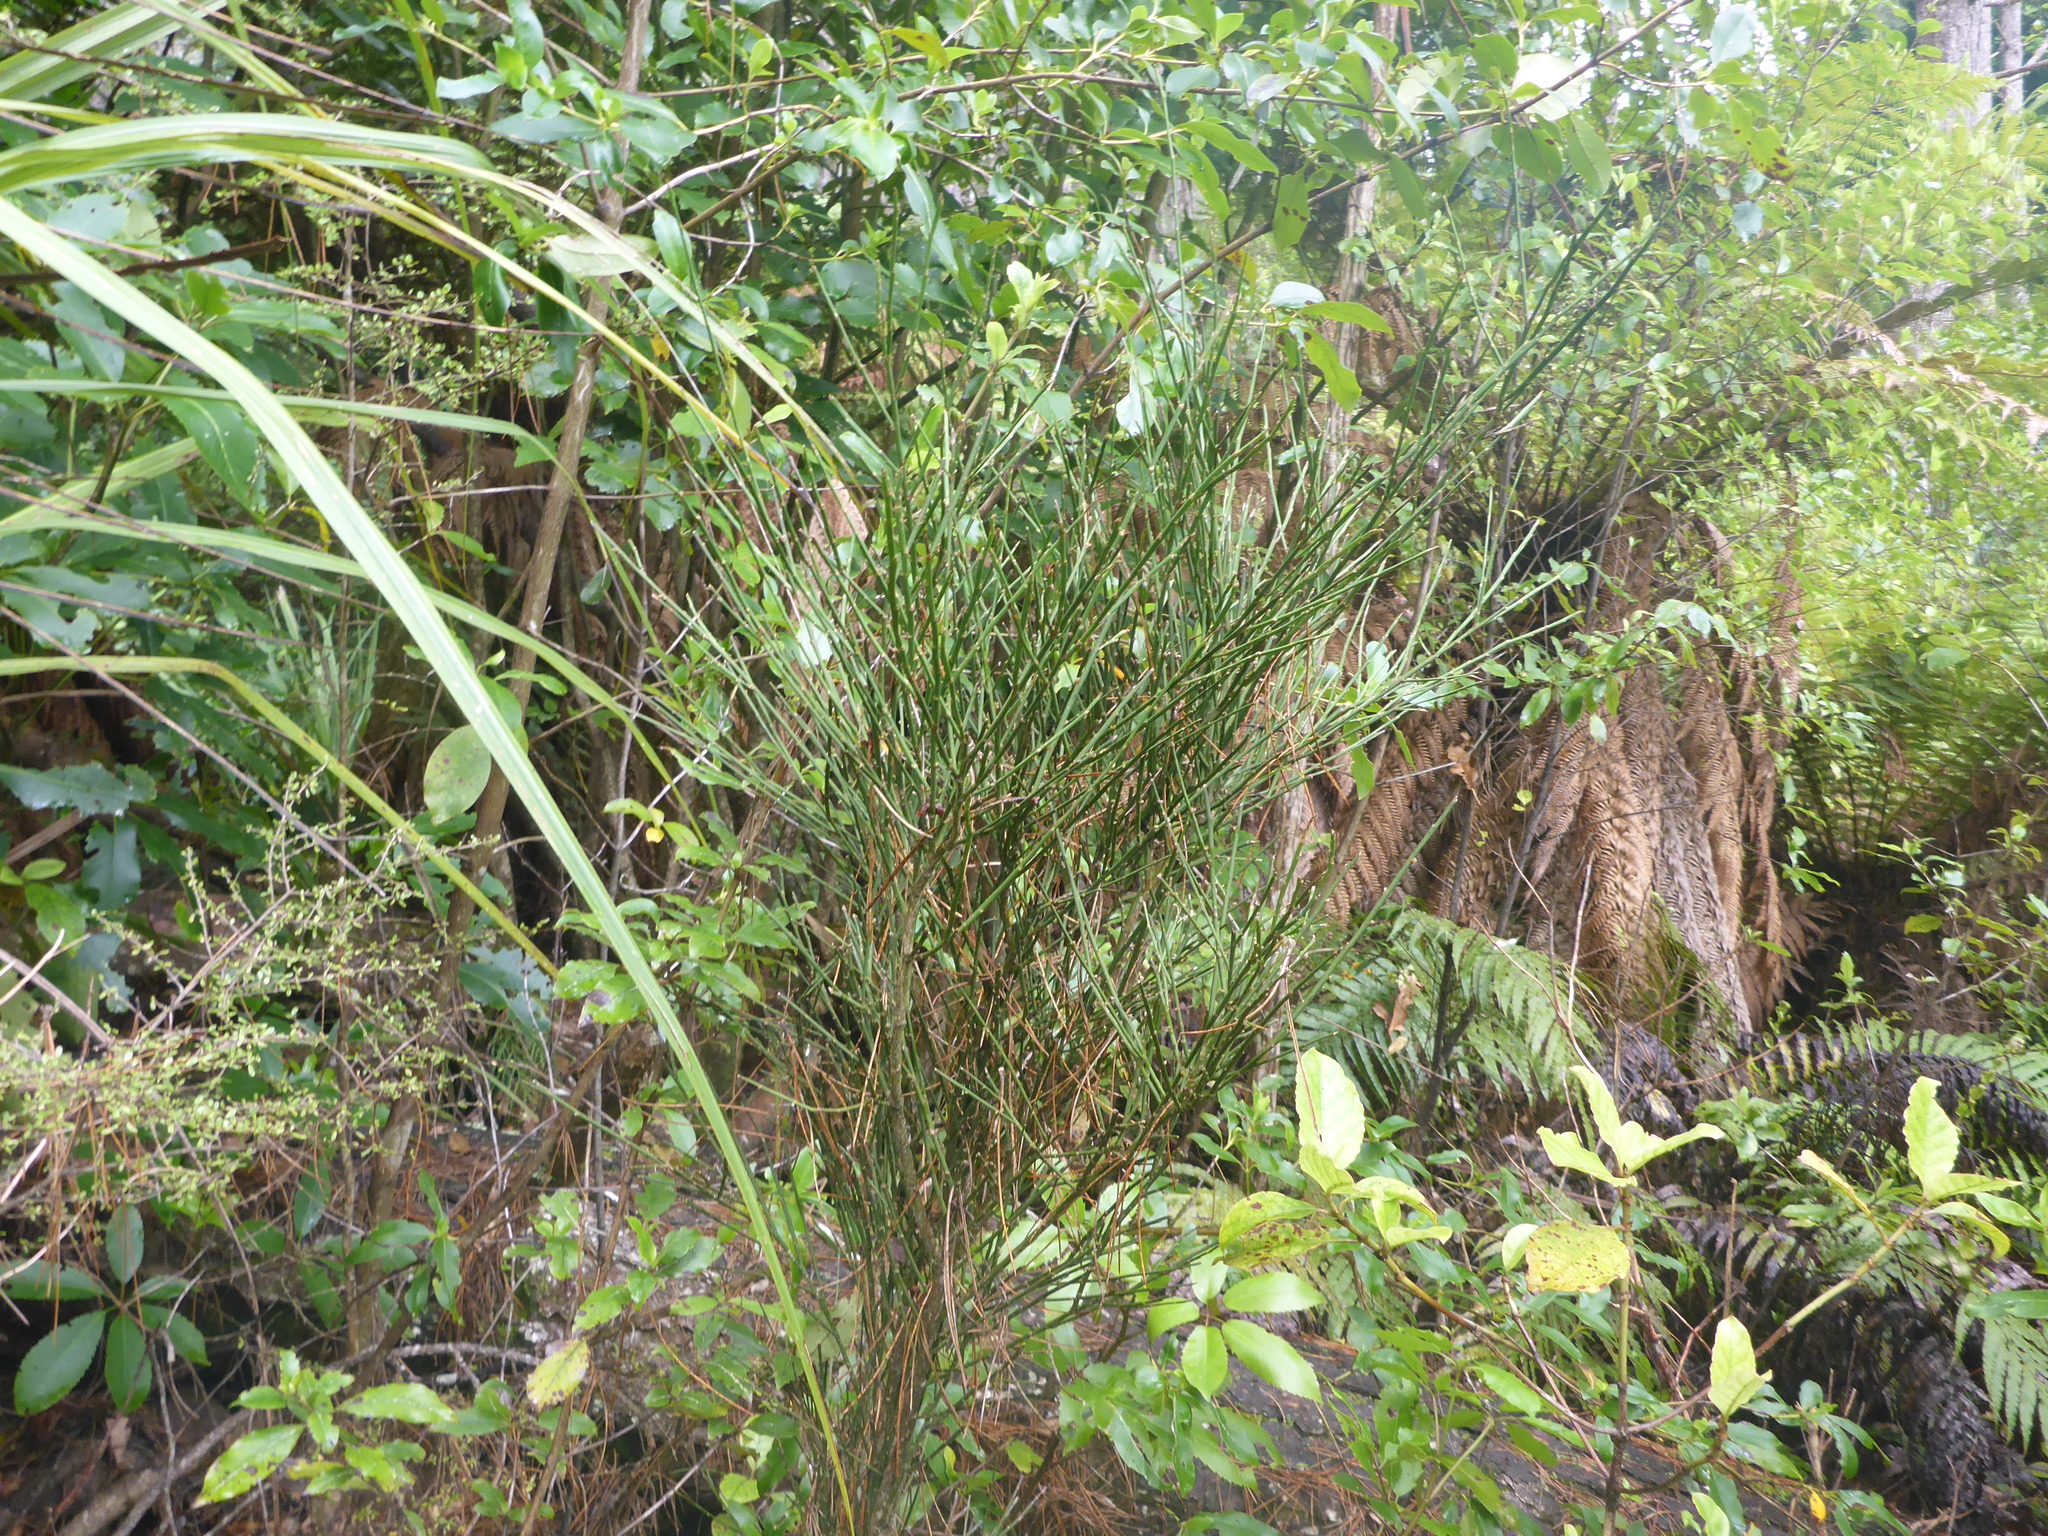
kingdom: Plantae
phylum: Tracheophyta
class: Magnoliopsida
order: Fabales
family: Fabaceae
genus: Carmichaelia
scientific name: Carmichaelia australis
